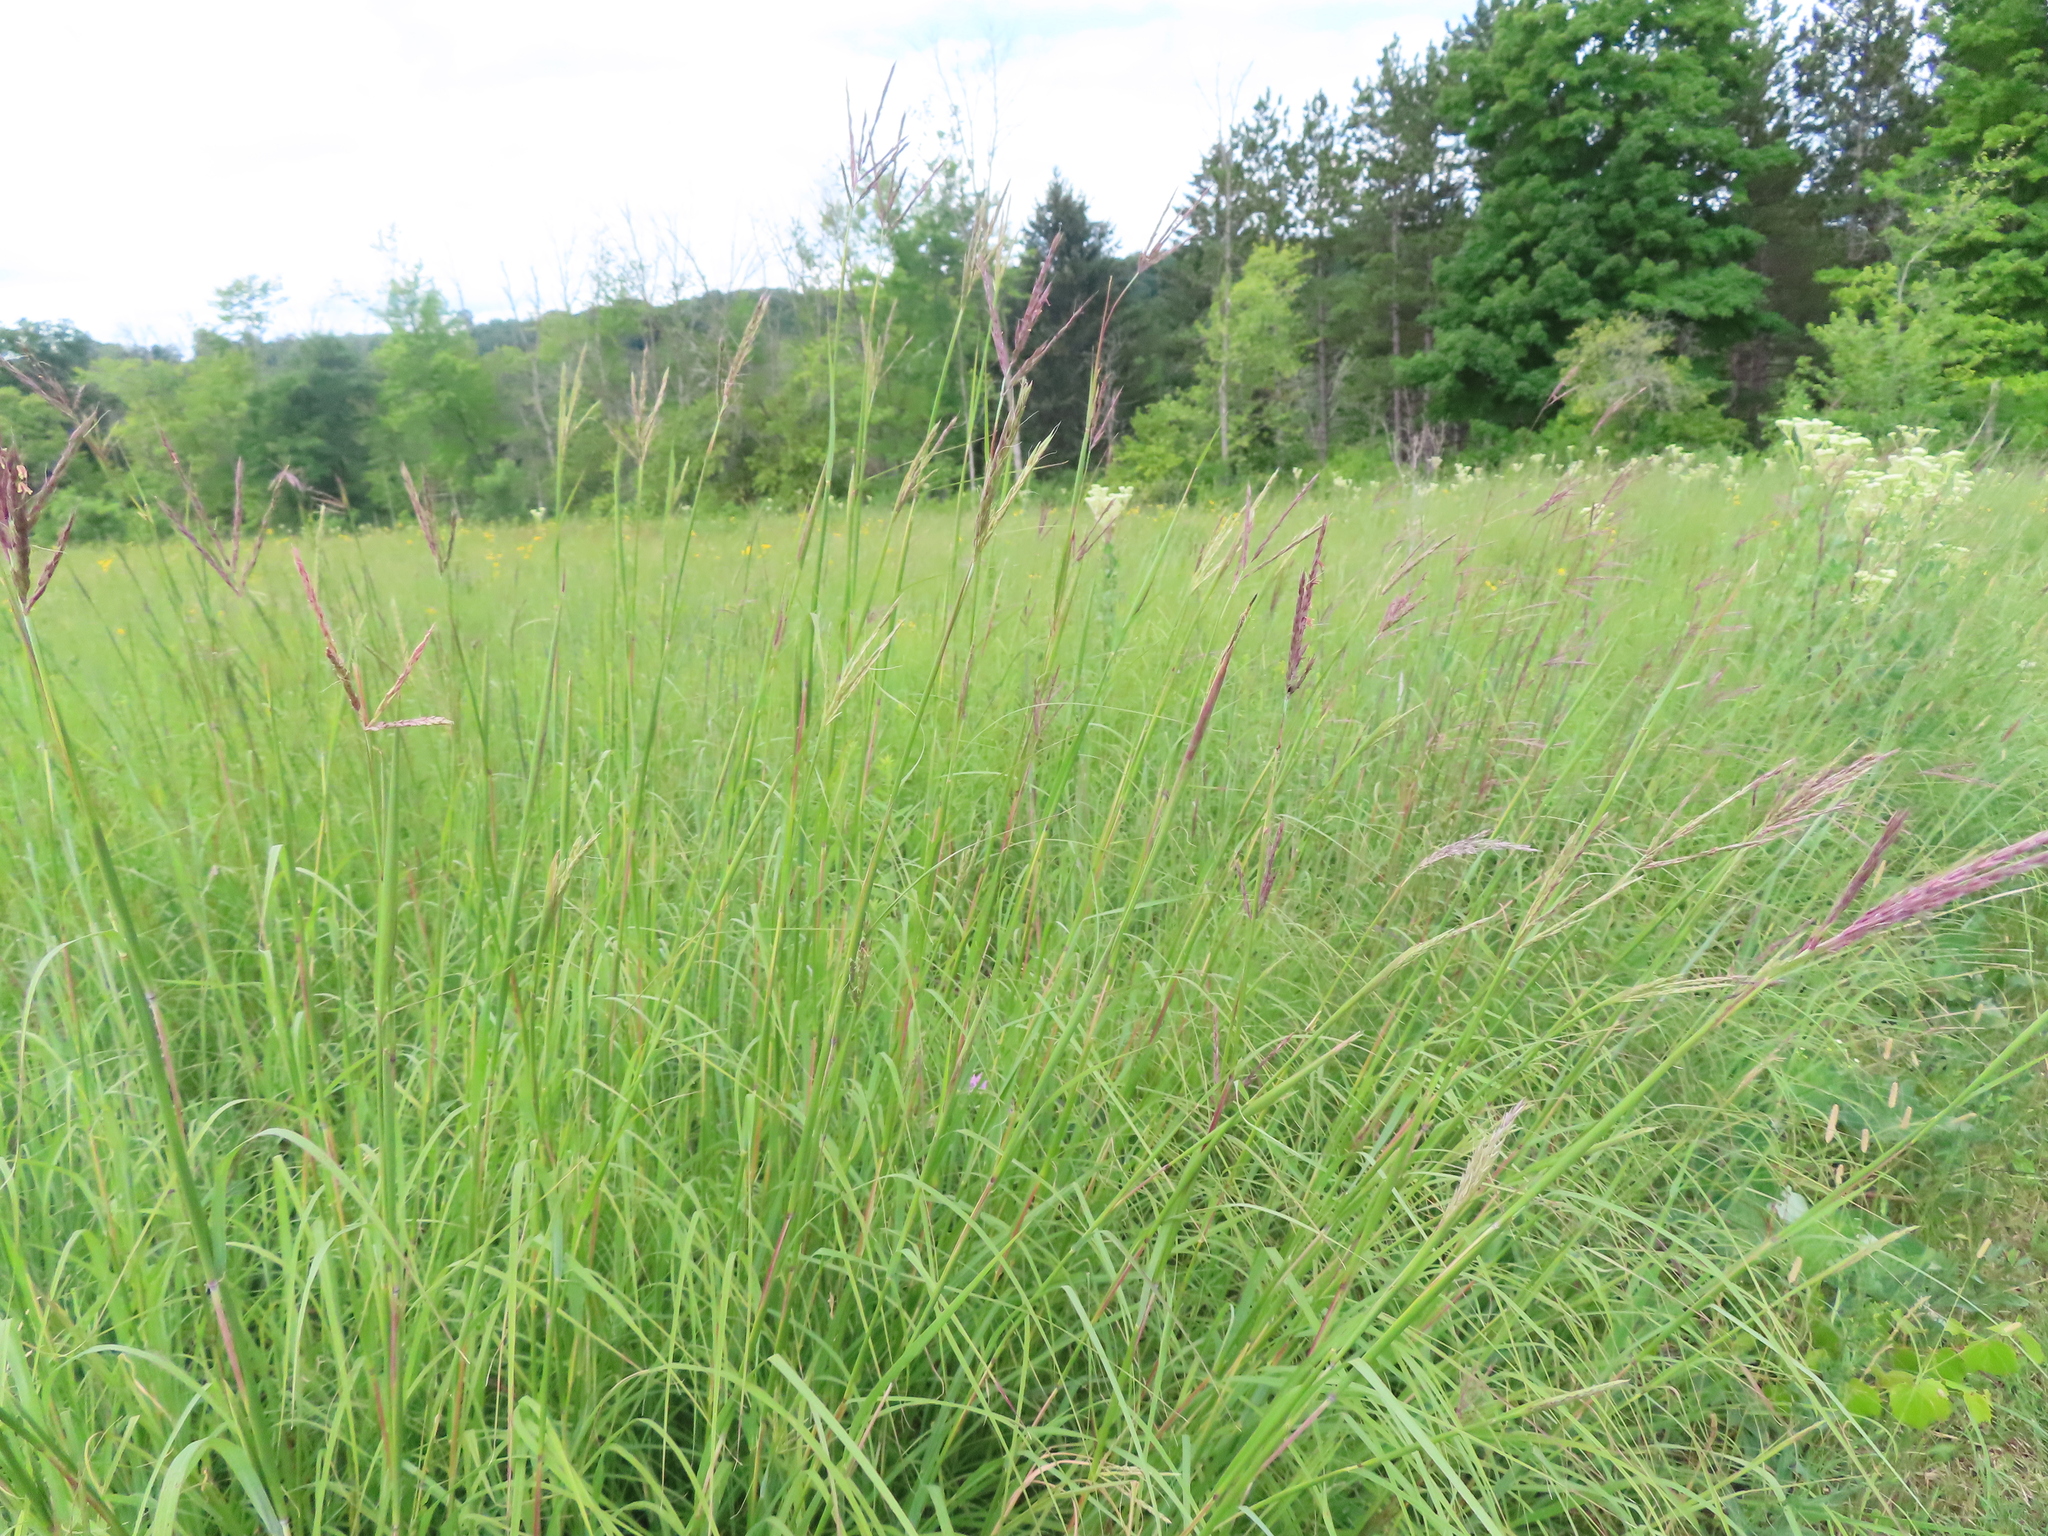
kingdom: Plantae
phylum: Tracheophyta
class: Liliopsida
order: Poales
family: Poaceae
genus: Andropogon
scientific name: Andropogon gerardi
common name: Big bluestem
